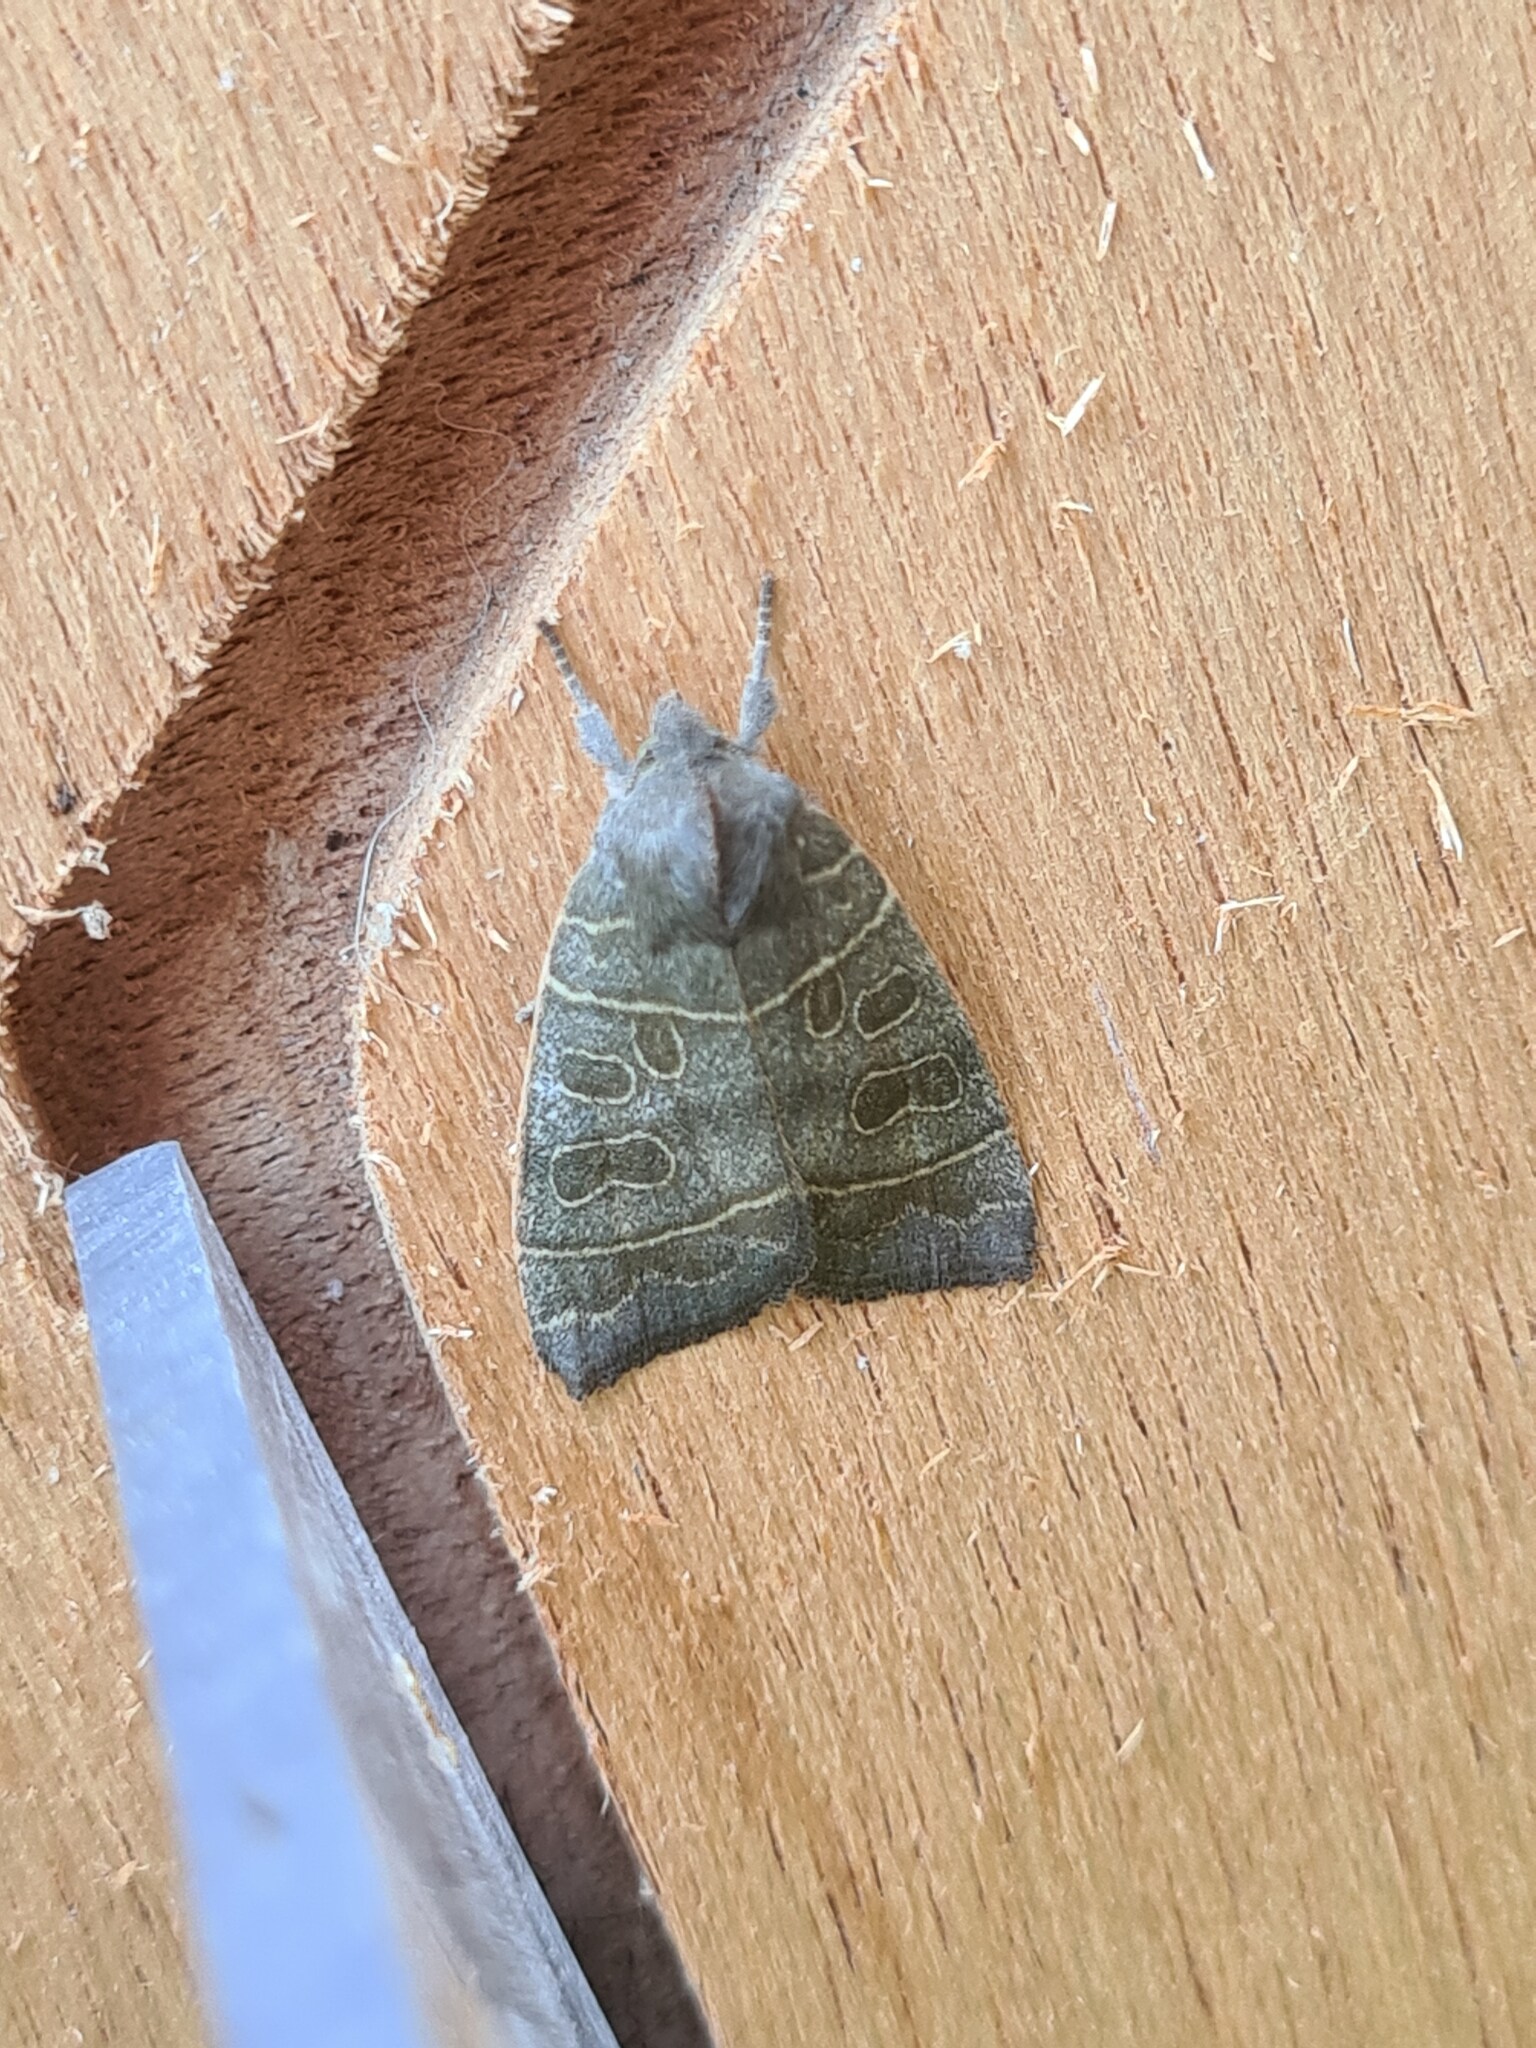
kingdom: Animalia
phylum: Arthropoda
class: Insecta
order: Lepidoptera
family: Noctuidae
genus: Ipimorpha
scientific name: Ipimorpha subtusa
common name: Olive
